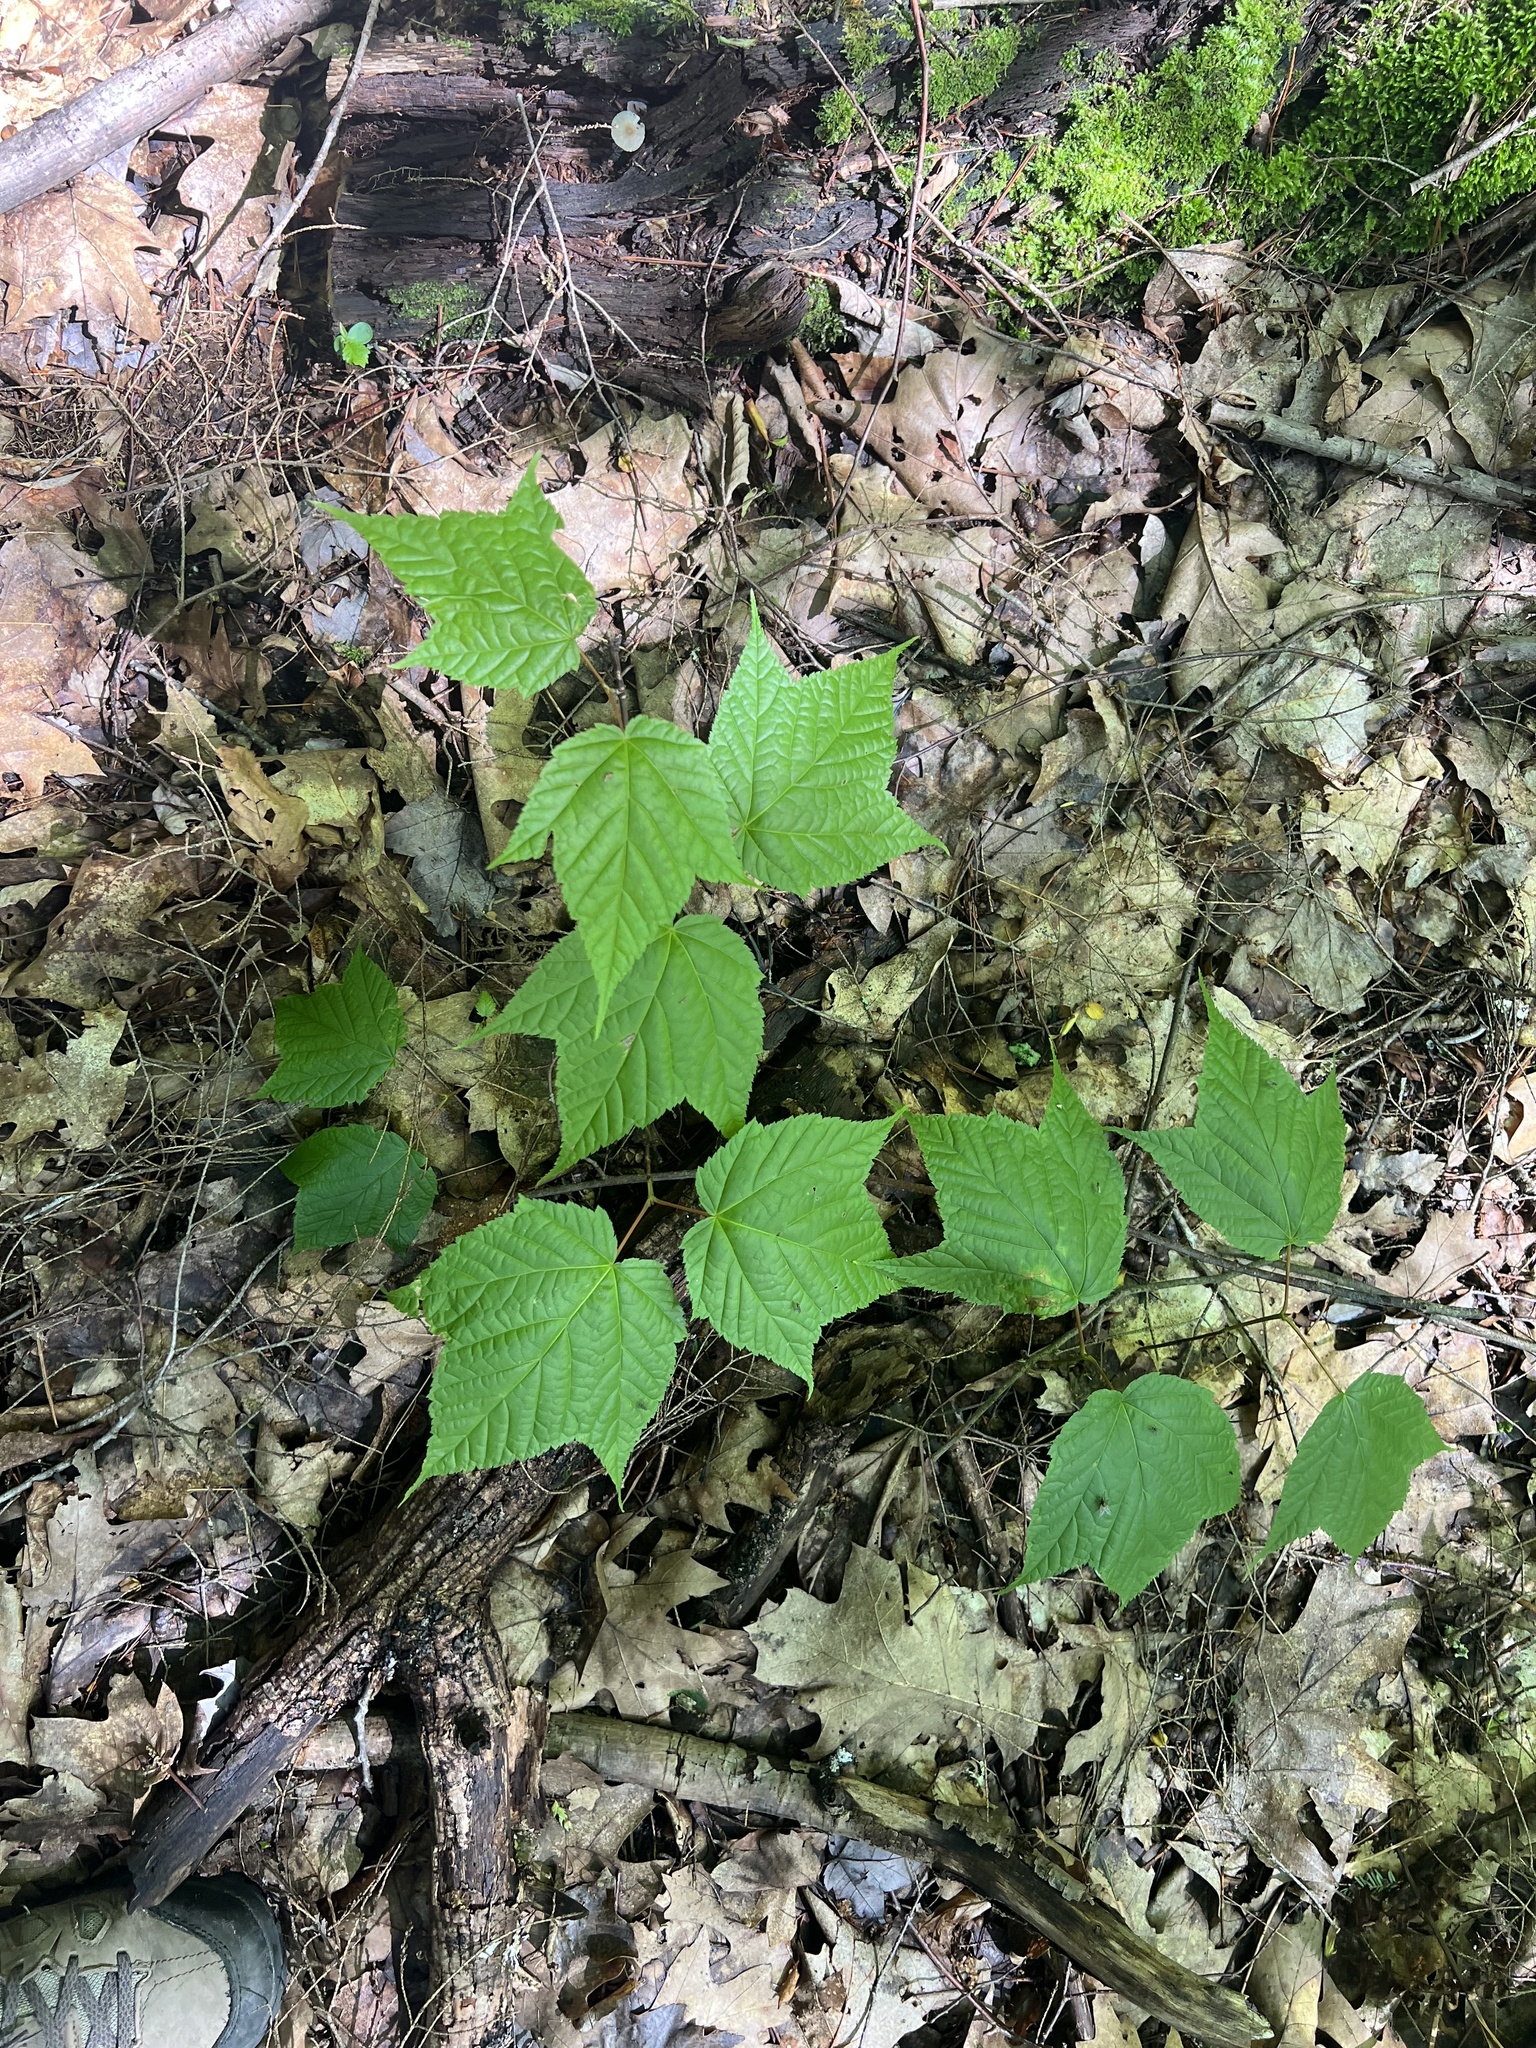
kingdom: Plantae
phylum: Tracheophyta
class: Magnoliopsida
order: Sapindales
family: Sapindaceae
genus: Acer
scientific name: Acer pensylvanicum
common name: Moosewood
